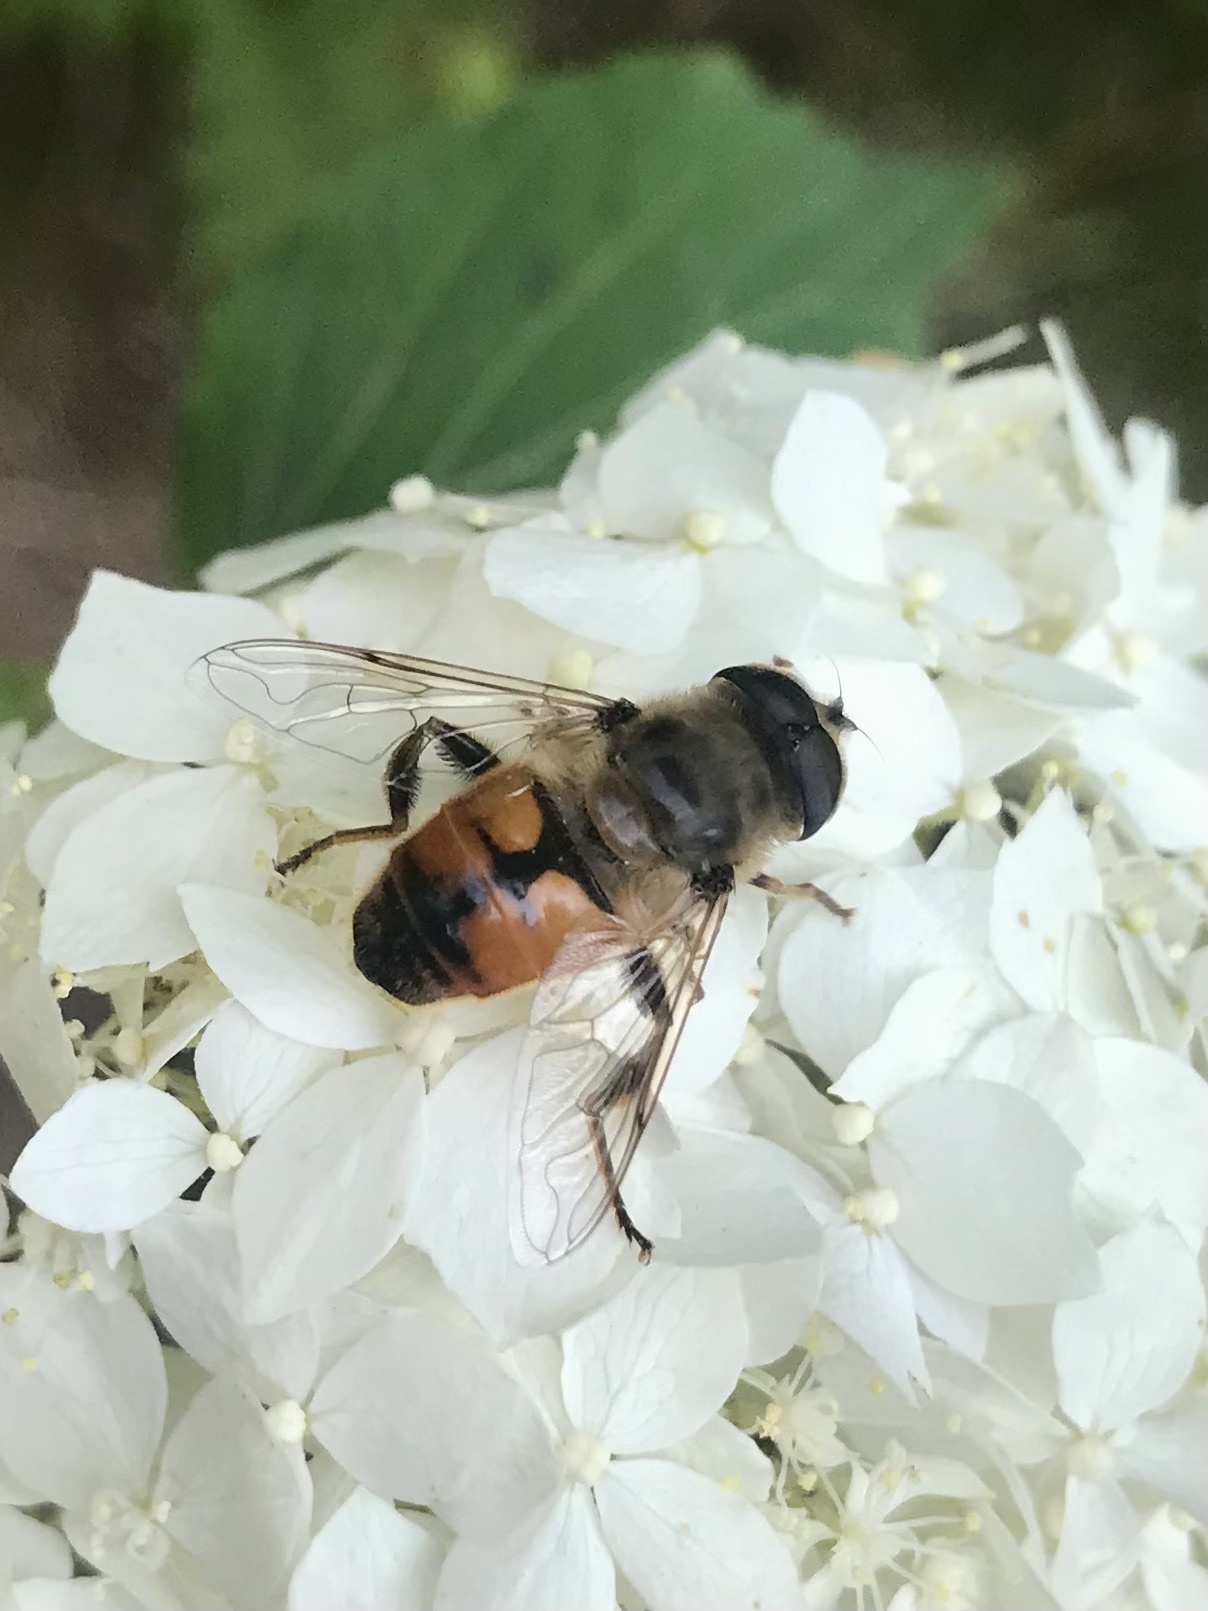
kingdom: Animalia
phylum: Arthropoda
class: Insecta
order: Diptera
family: Syrphidae
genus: Eristalis
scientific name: Eristalis tenax
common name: Drone fly
